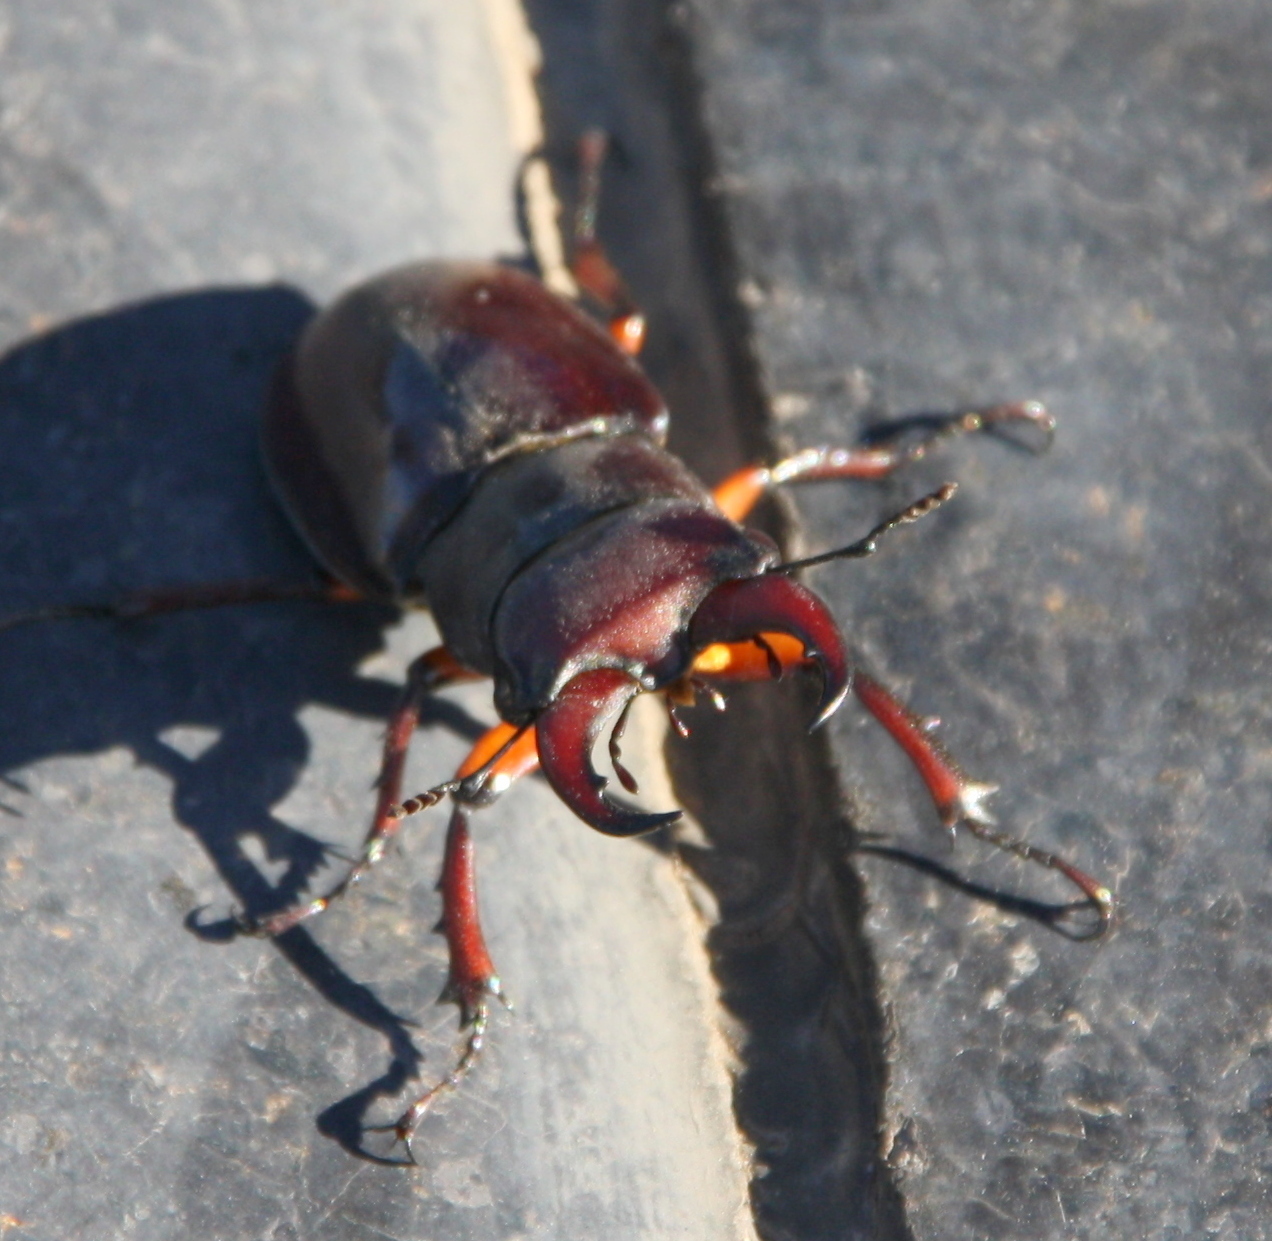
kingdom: Animalia
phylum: Arthropoda
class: Insecta
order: Coleoptera
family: Lucanidae
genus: Lucanus
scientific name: Lucanus capreolus
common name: Stag beetle
